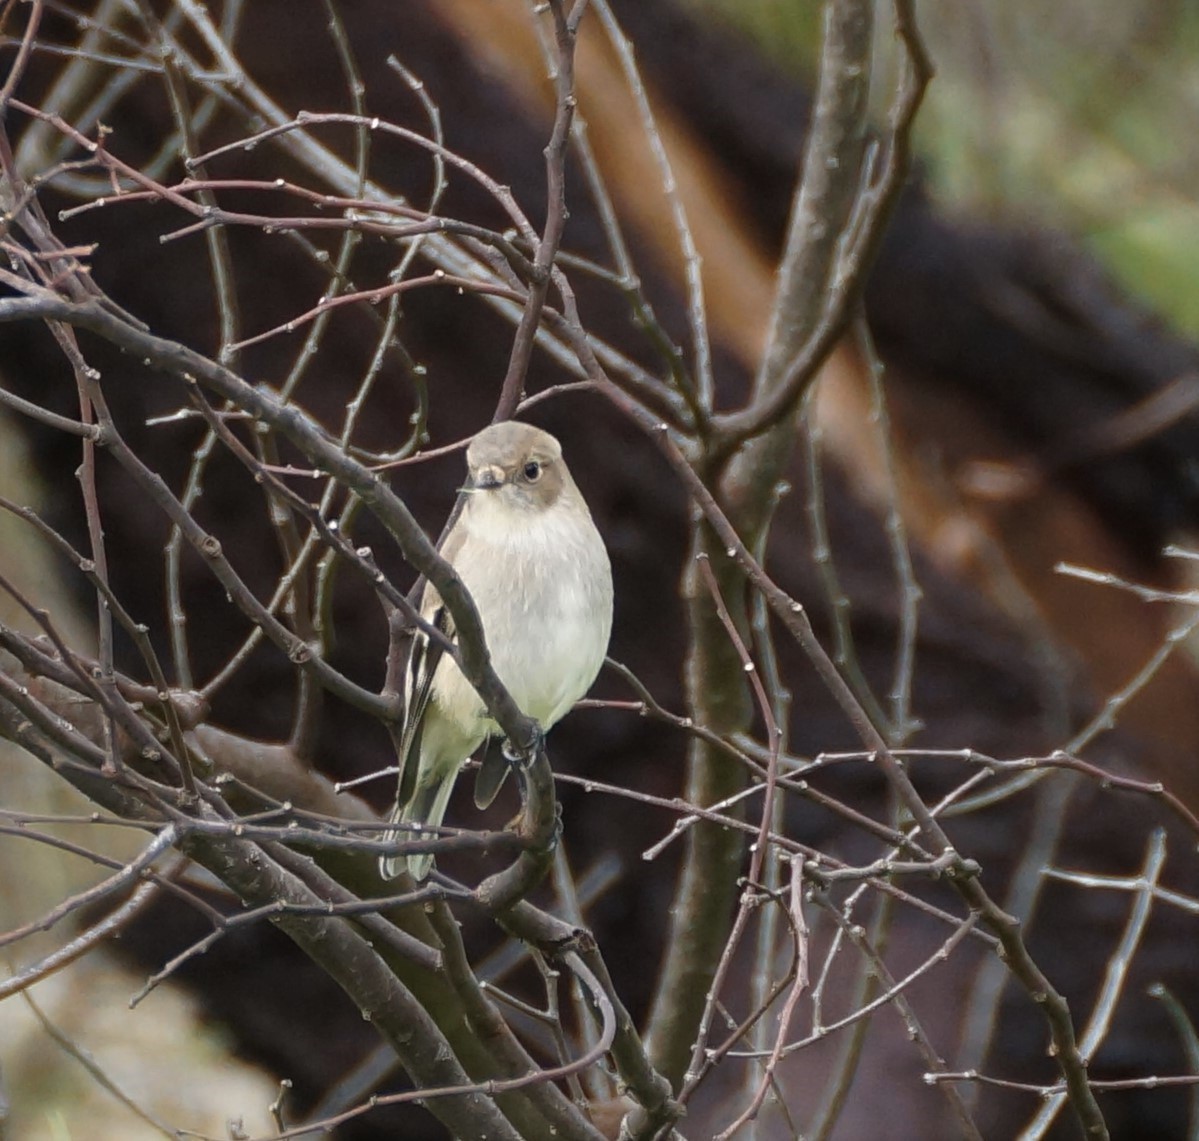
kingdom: Animalia
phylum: Chordata
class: Aves
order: Passeriformes
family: Petroicidae
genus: Petroica
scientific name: Petroica phoenicea
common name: Flame robin
